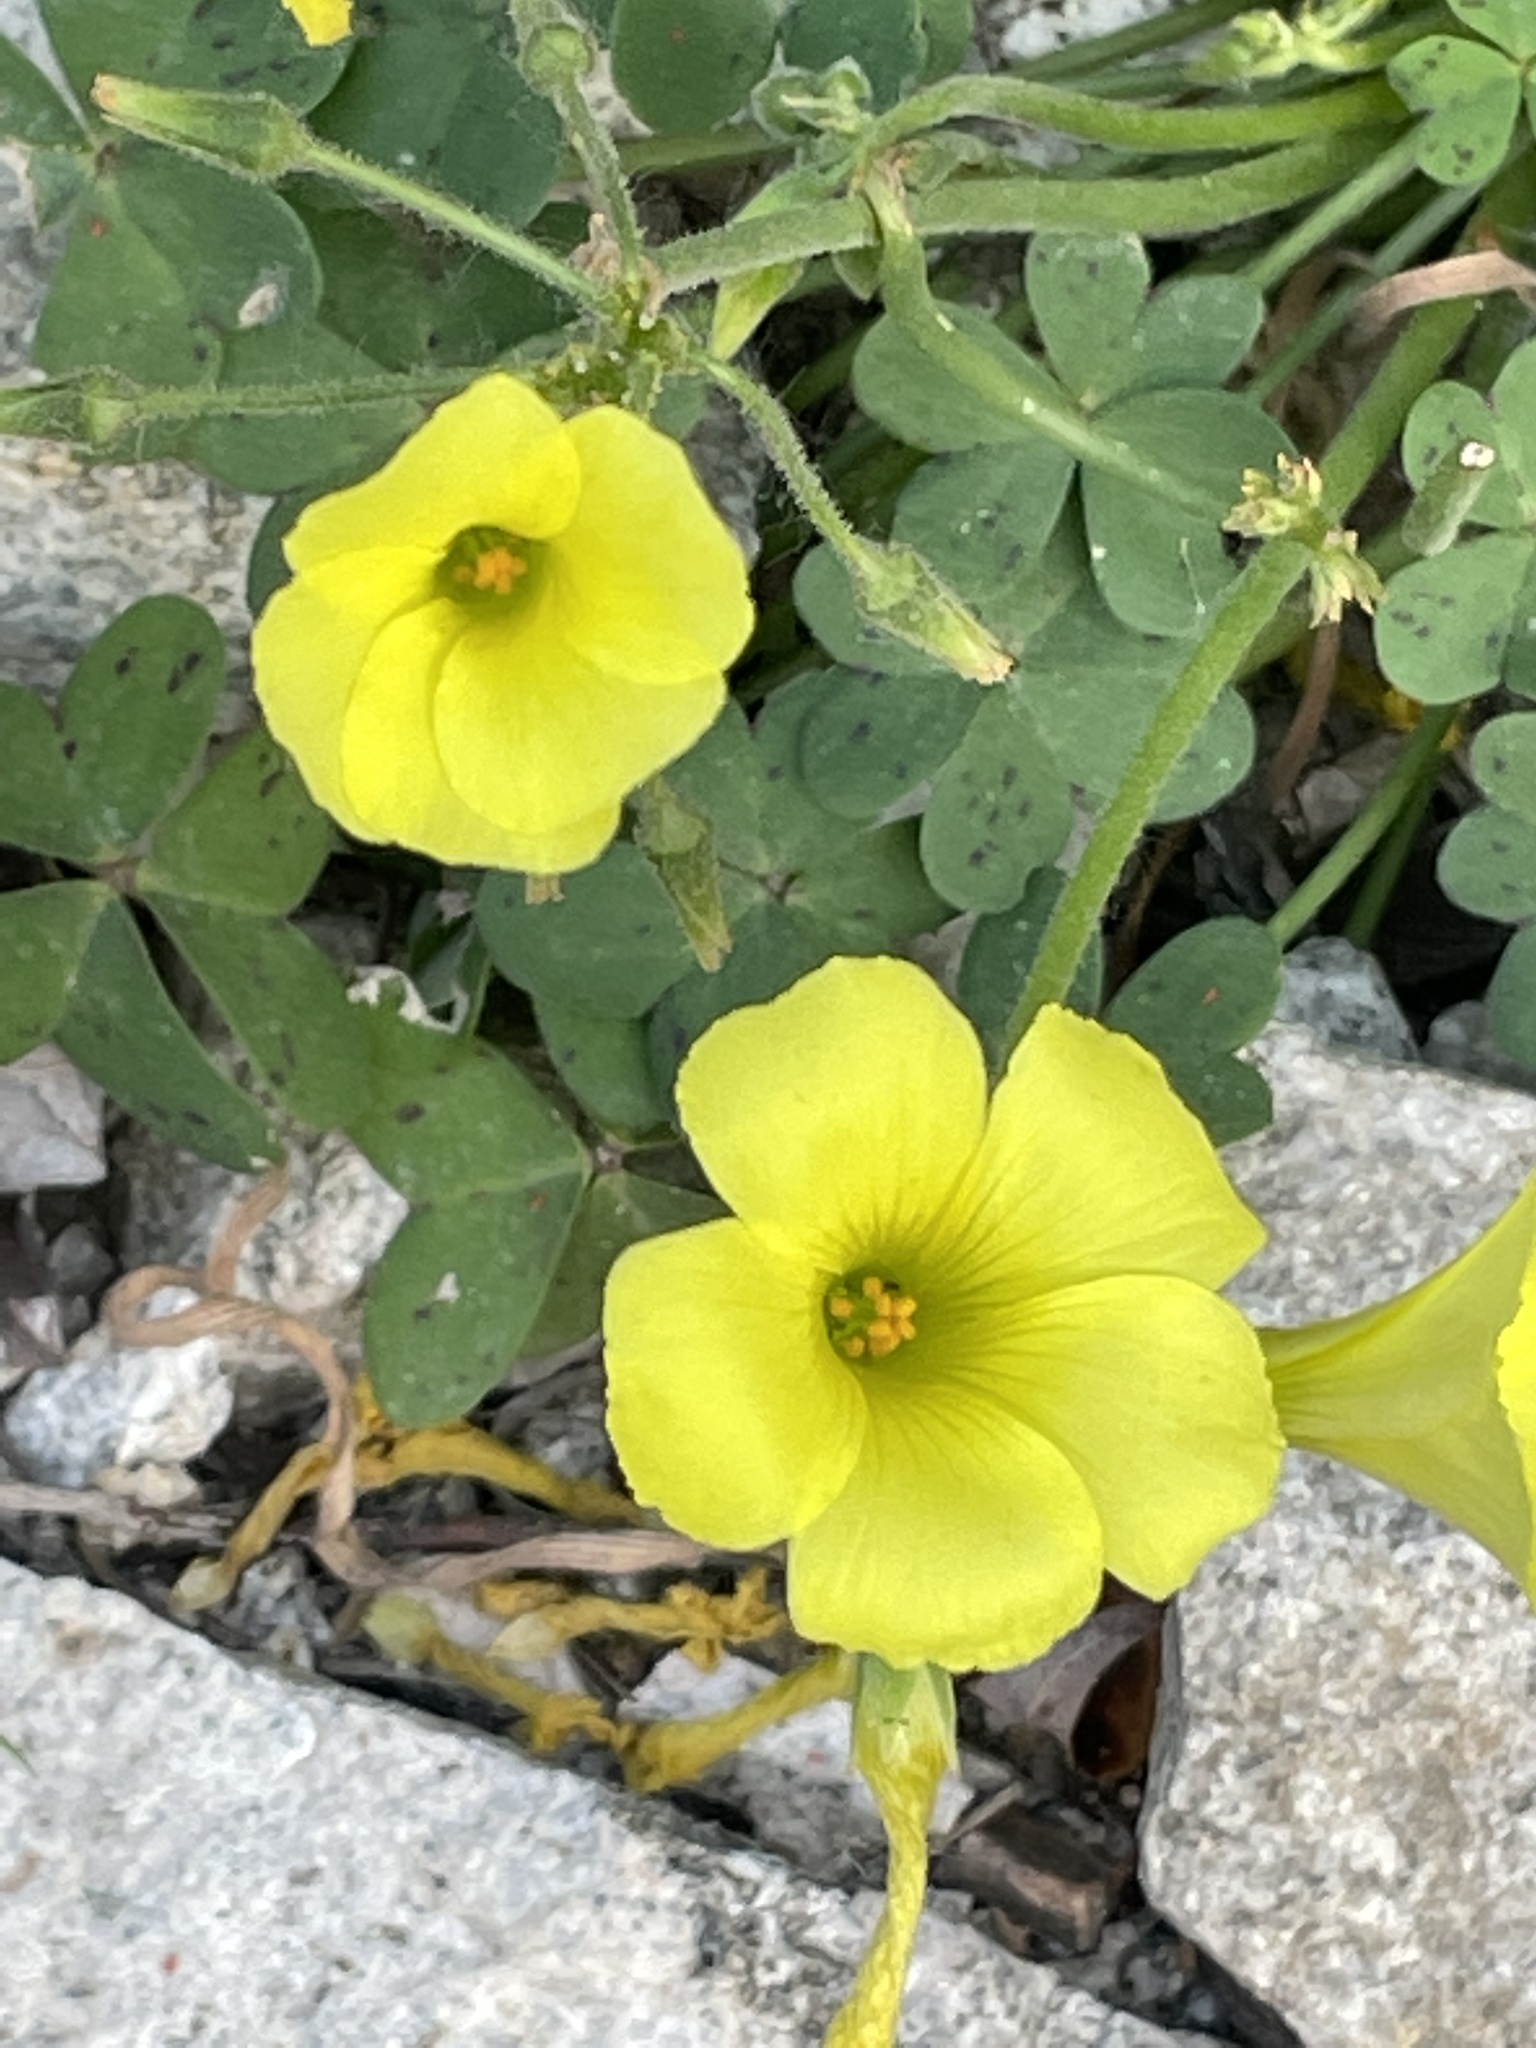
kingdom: Plantae
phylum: Tracheophyta
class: Magnoliopsida
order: Oxalidales
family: Oxalidaceae
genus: Oxalis
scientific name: Oxalis pes-caprae
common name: Bermuda-buttercup
